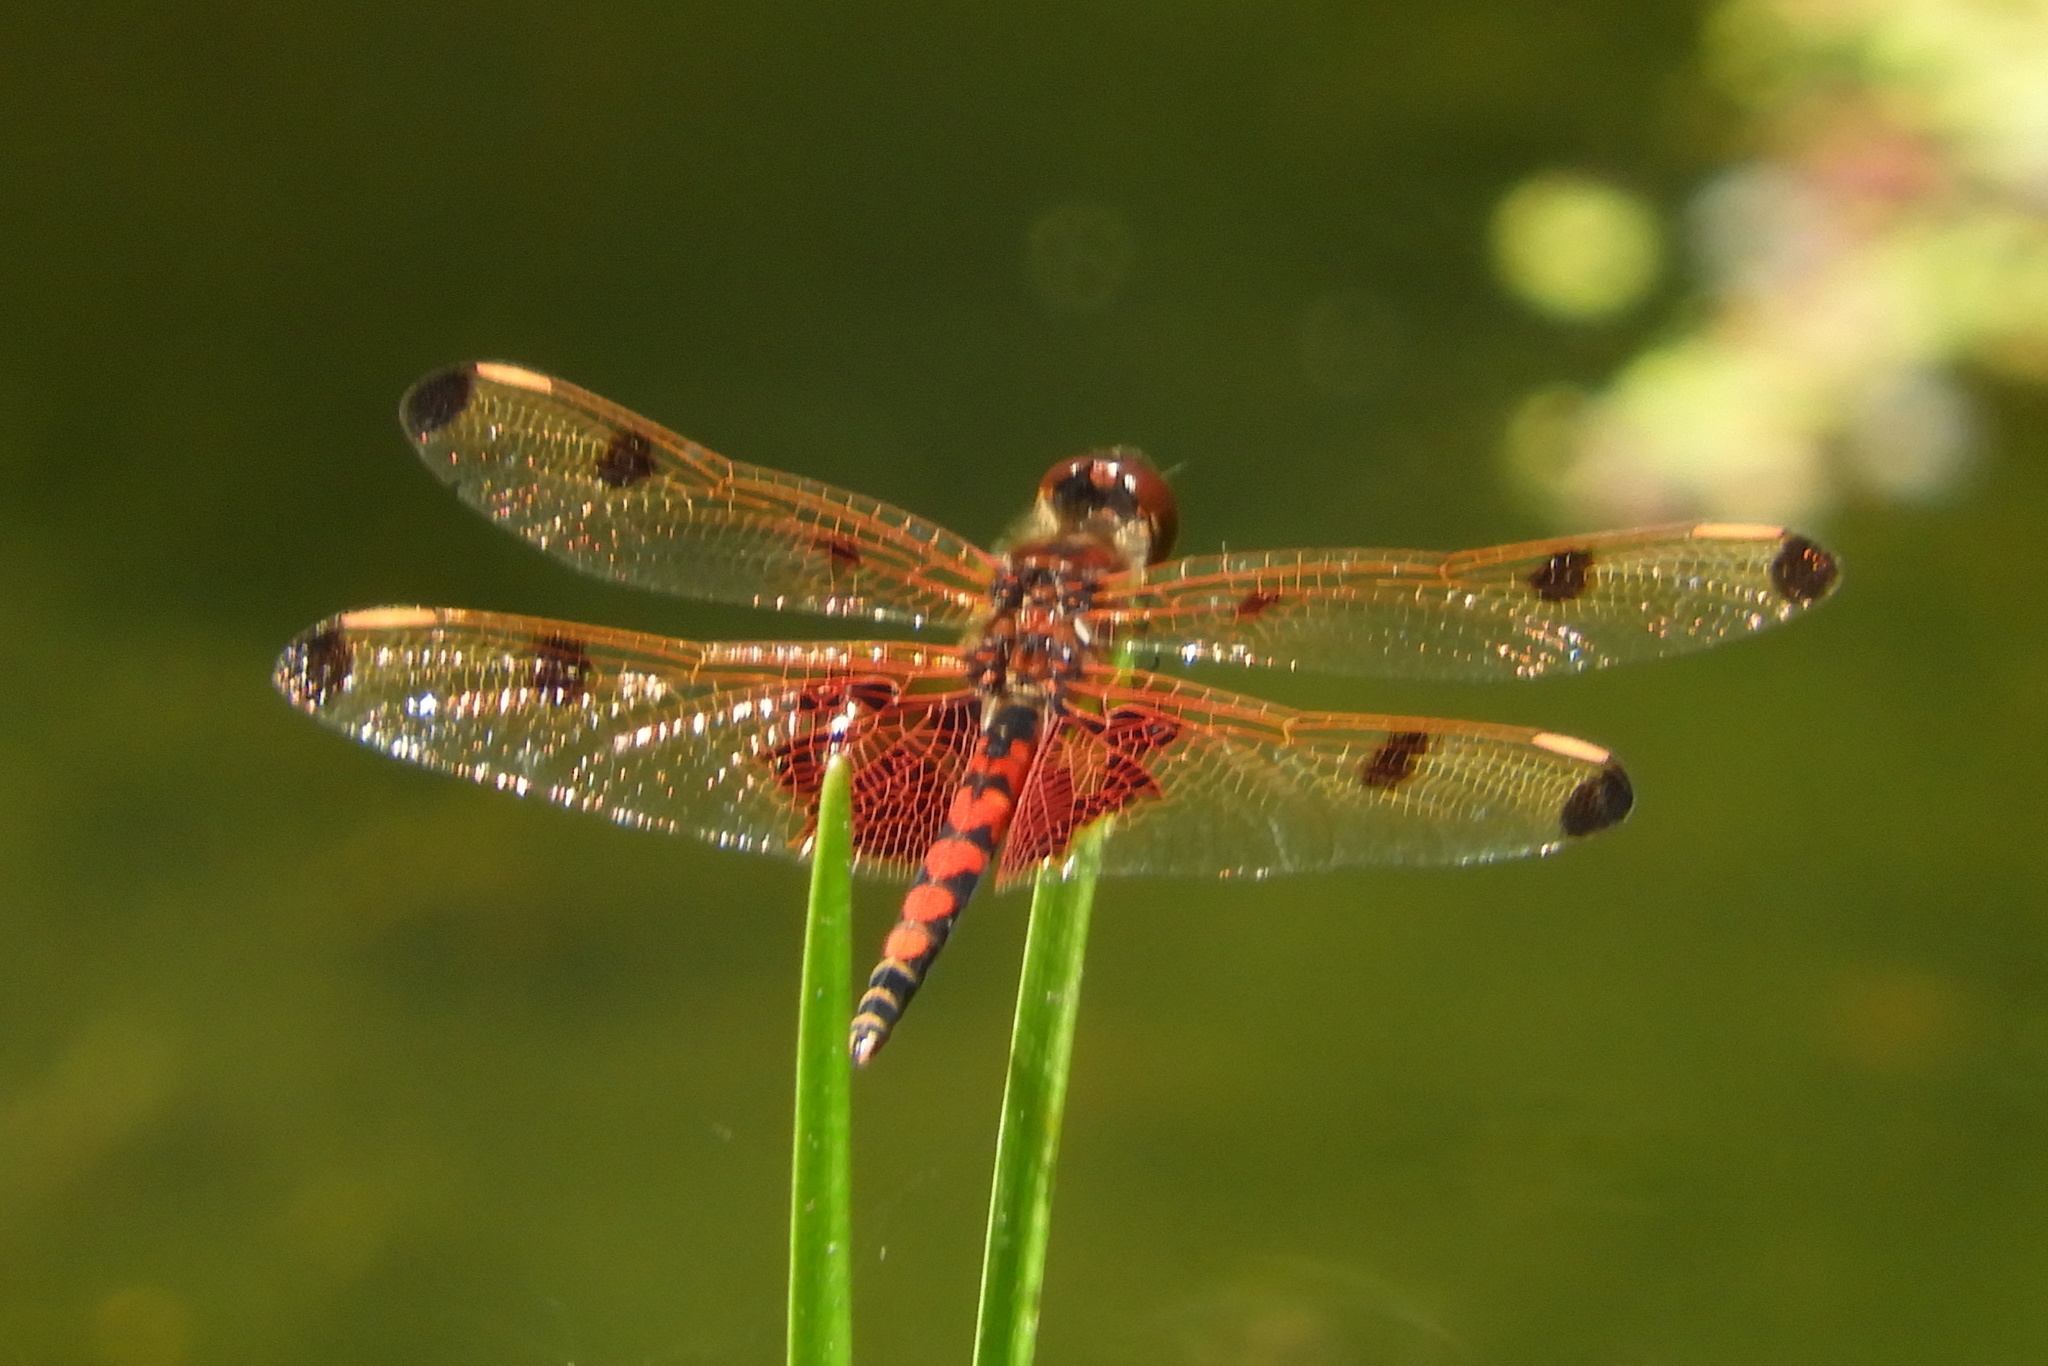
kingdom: Animalia
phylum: Arthropoda
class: Insecta
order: Odonata
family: Libellulidae
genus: Celithemis
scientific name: Celithemis elisa
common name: Calico pennant
